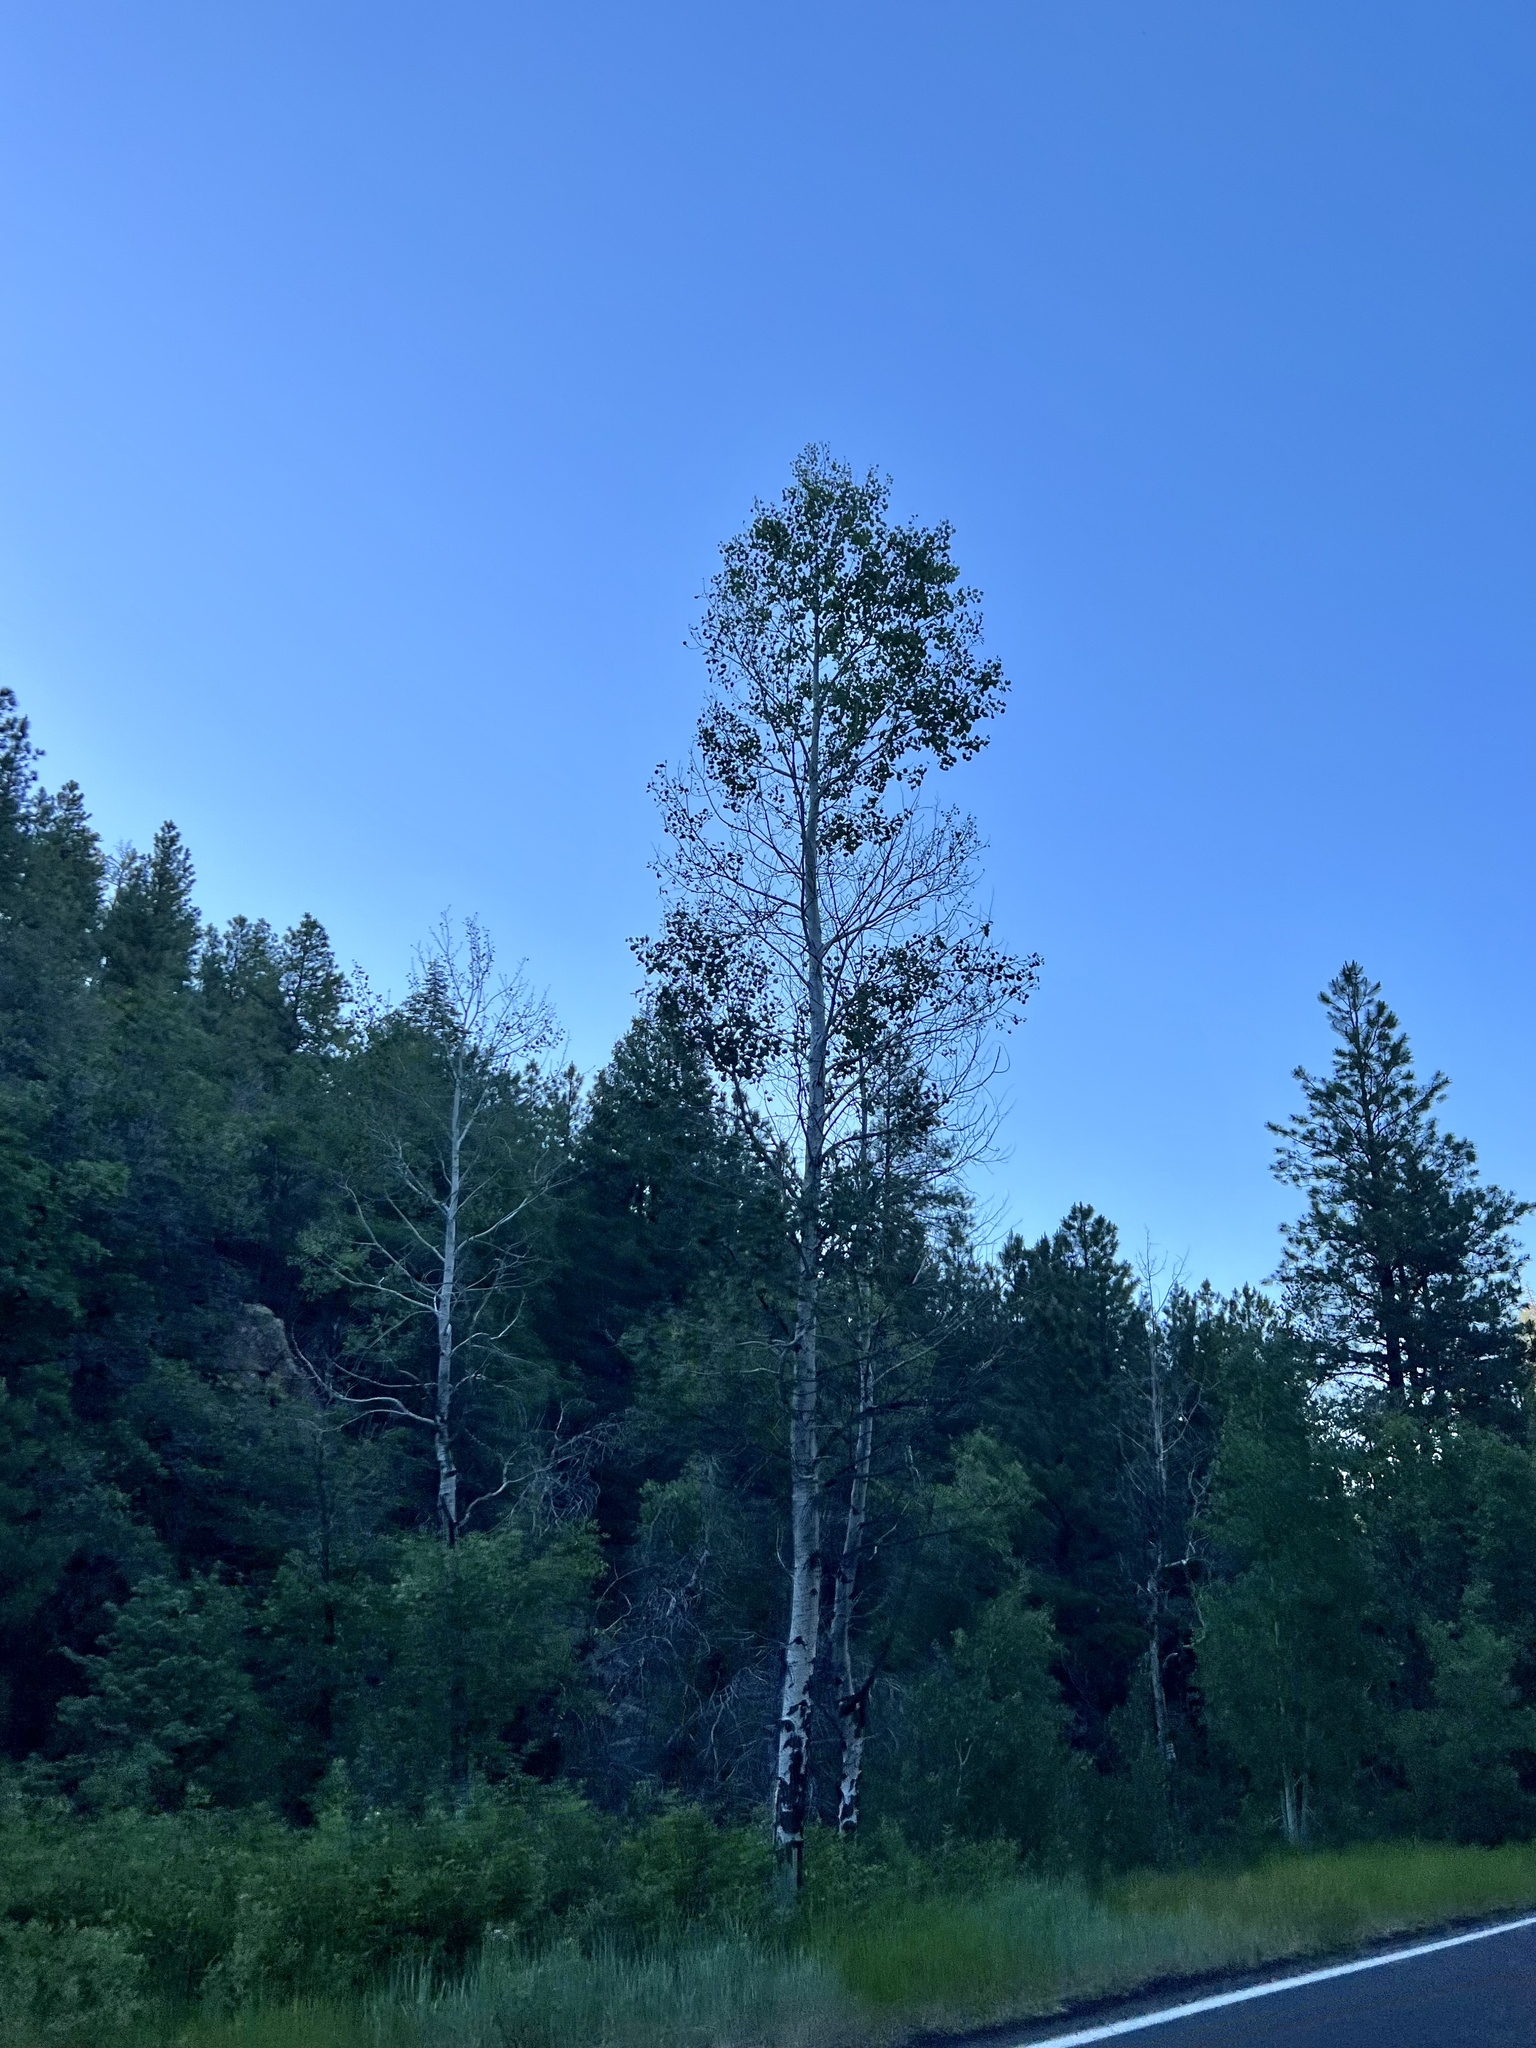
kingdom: Plantae
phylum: Tracheophyta
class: Magnoliopsida
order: Malpighiales
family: Salicaceae
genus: Populus
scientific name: Populus tremuloides
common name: Quaking aspen
